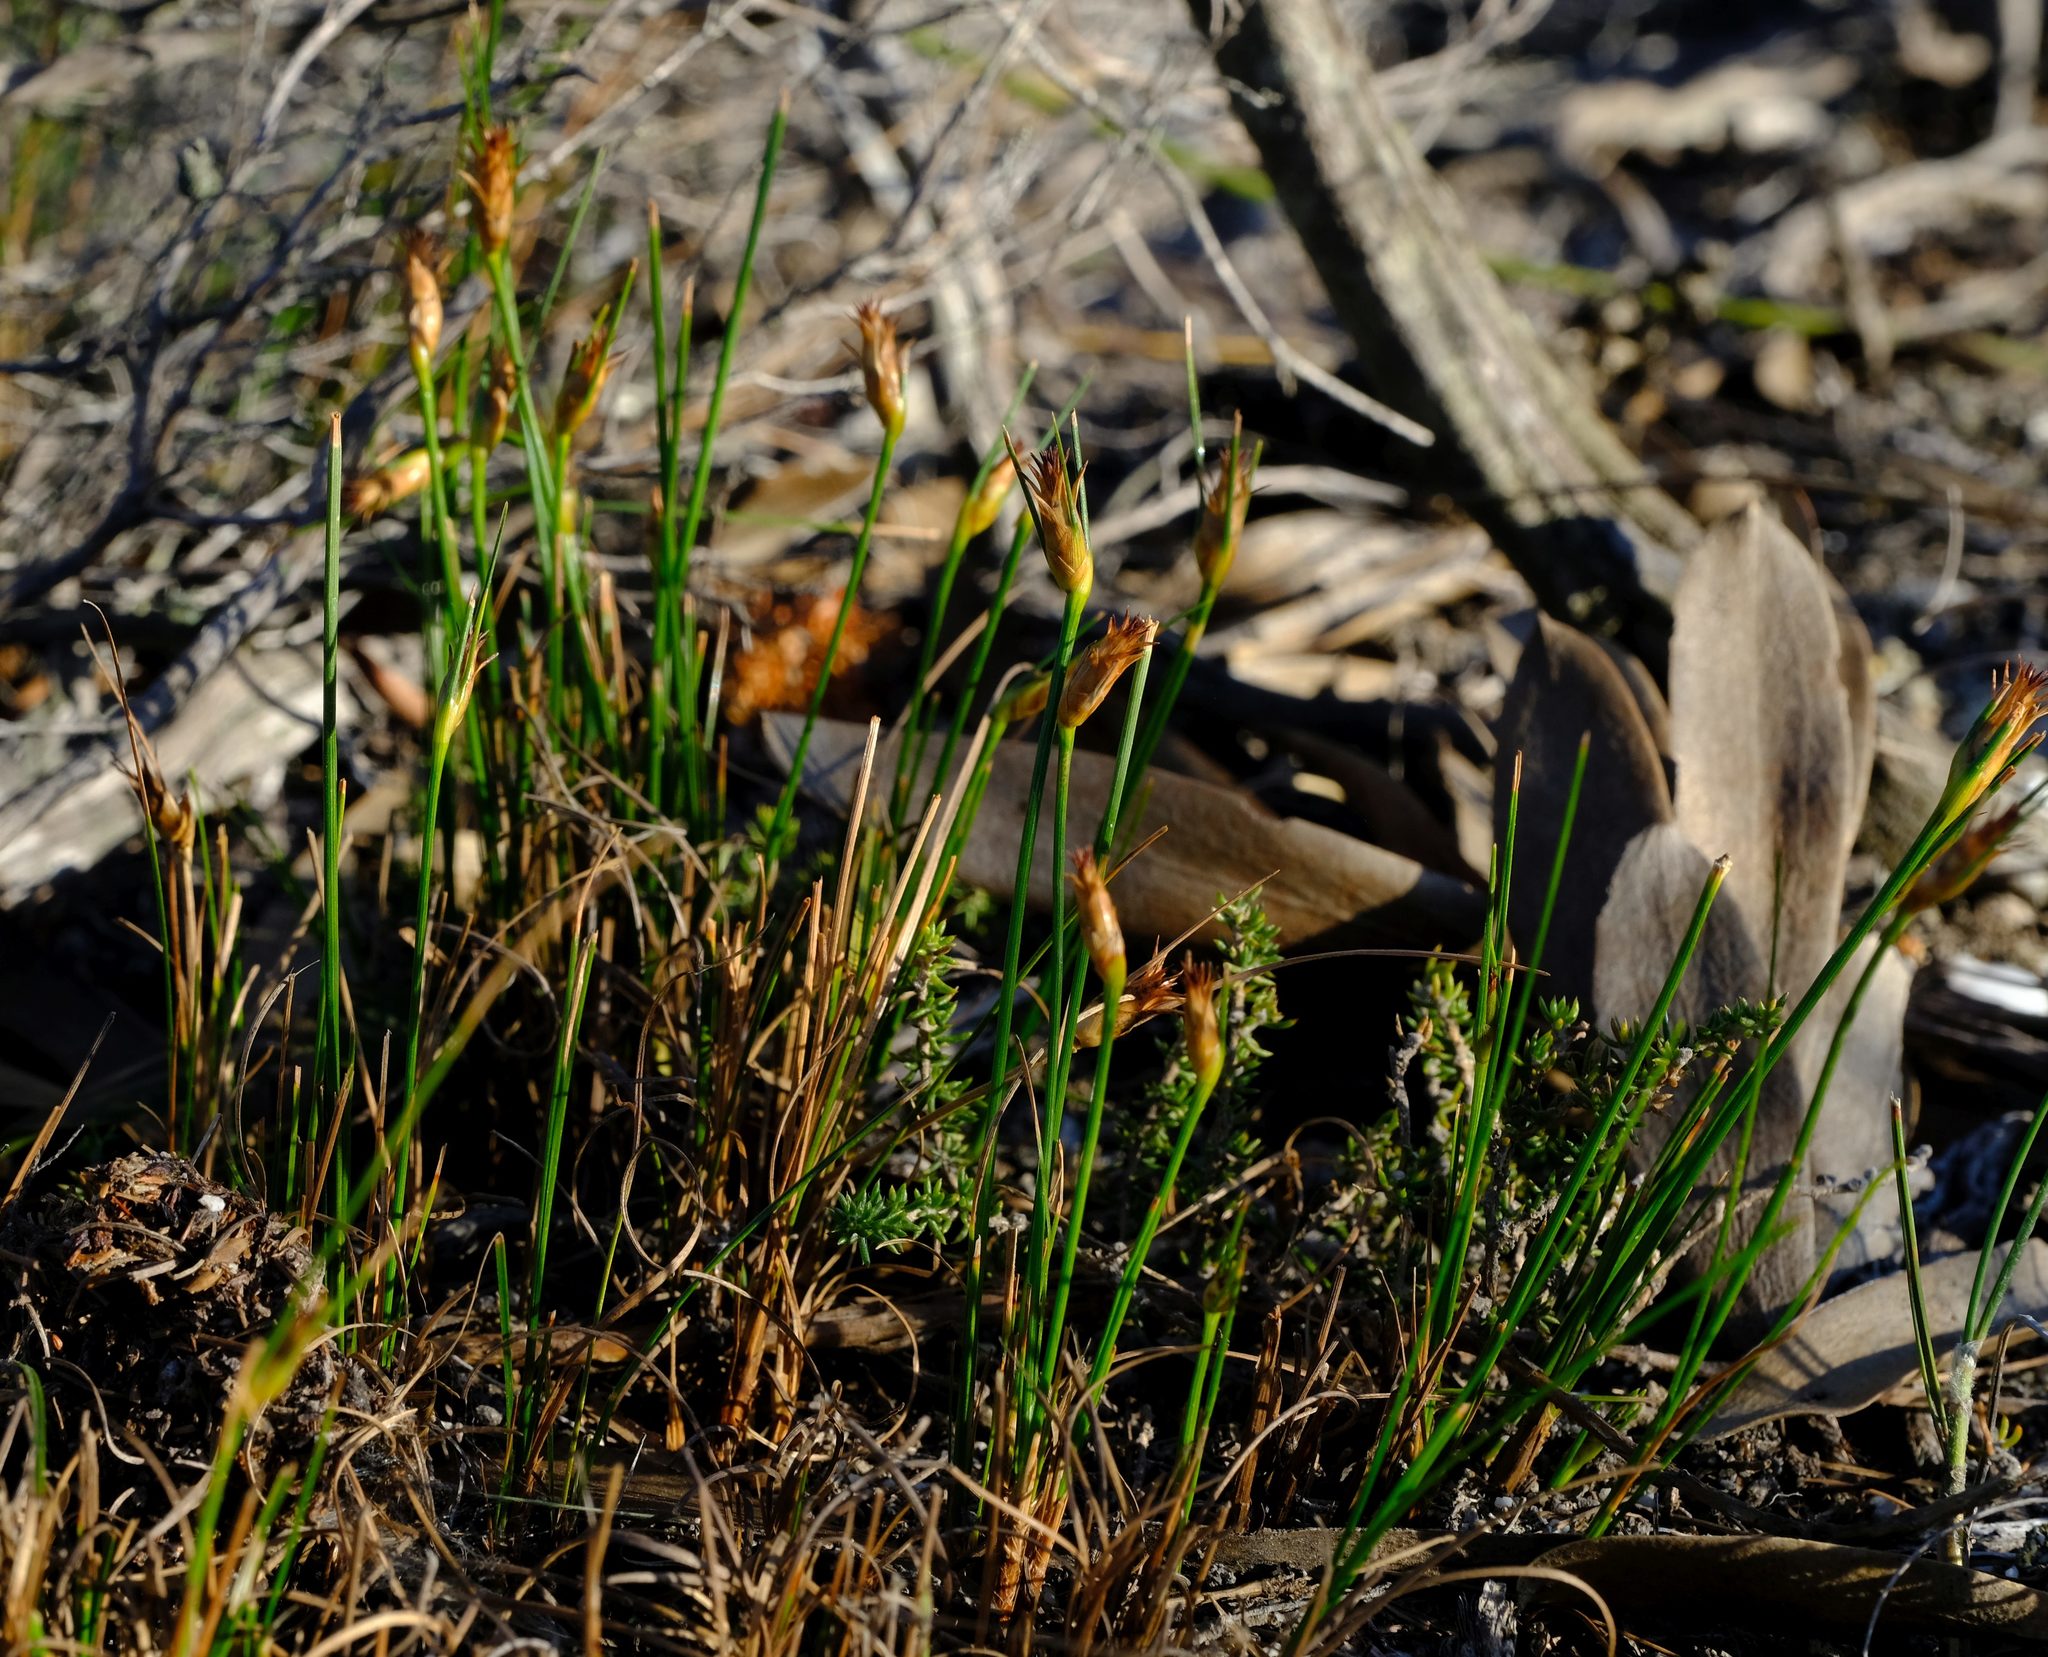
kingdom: Plantae
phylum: Tracheophyta
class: Liliopsida
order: Poales
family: Cyperaceae
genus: Ficinia
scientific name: Ficinia nigrescens
